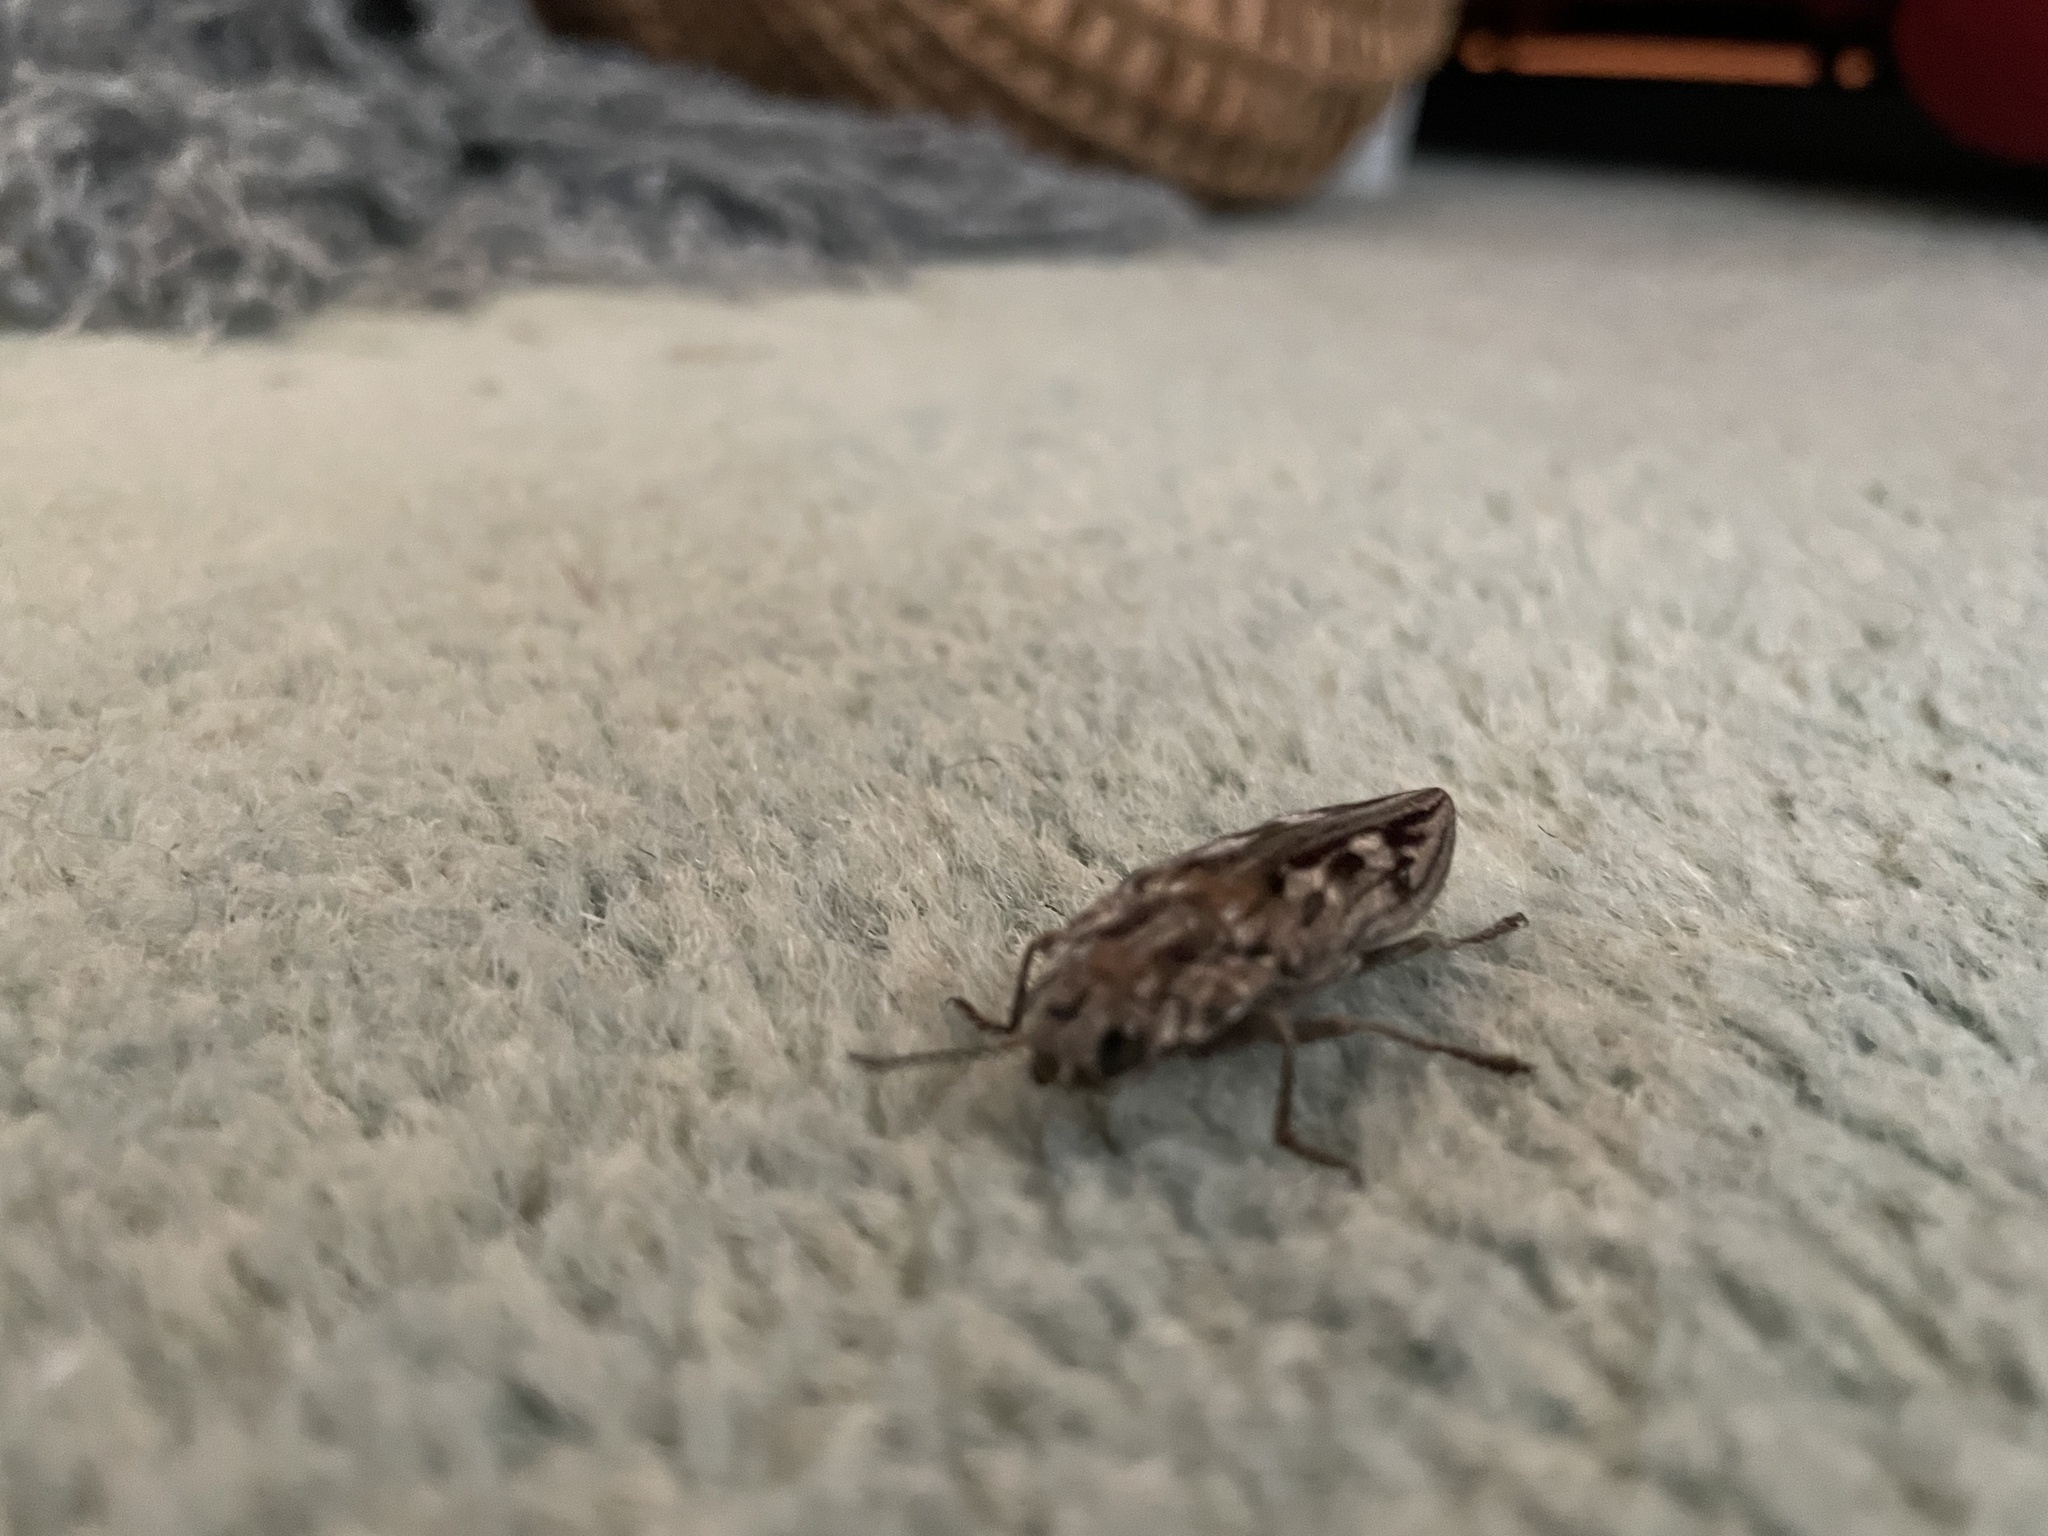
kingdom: Animalia
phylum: Arthropoda
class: Insecta
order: Coleoptera
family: Buprestidae
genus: Chalcophora
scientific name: Chalcophora virginiensis
